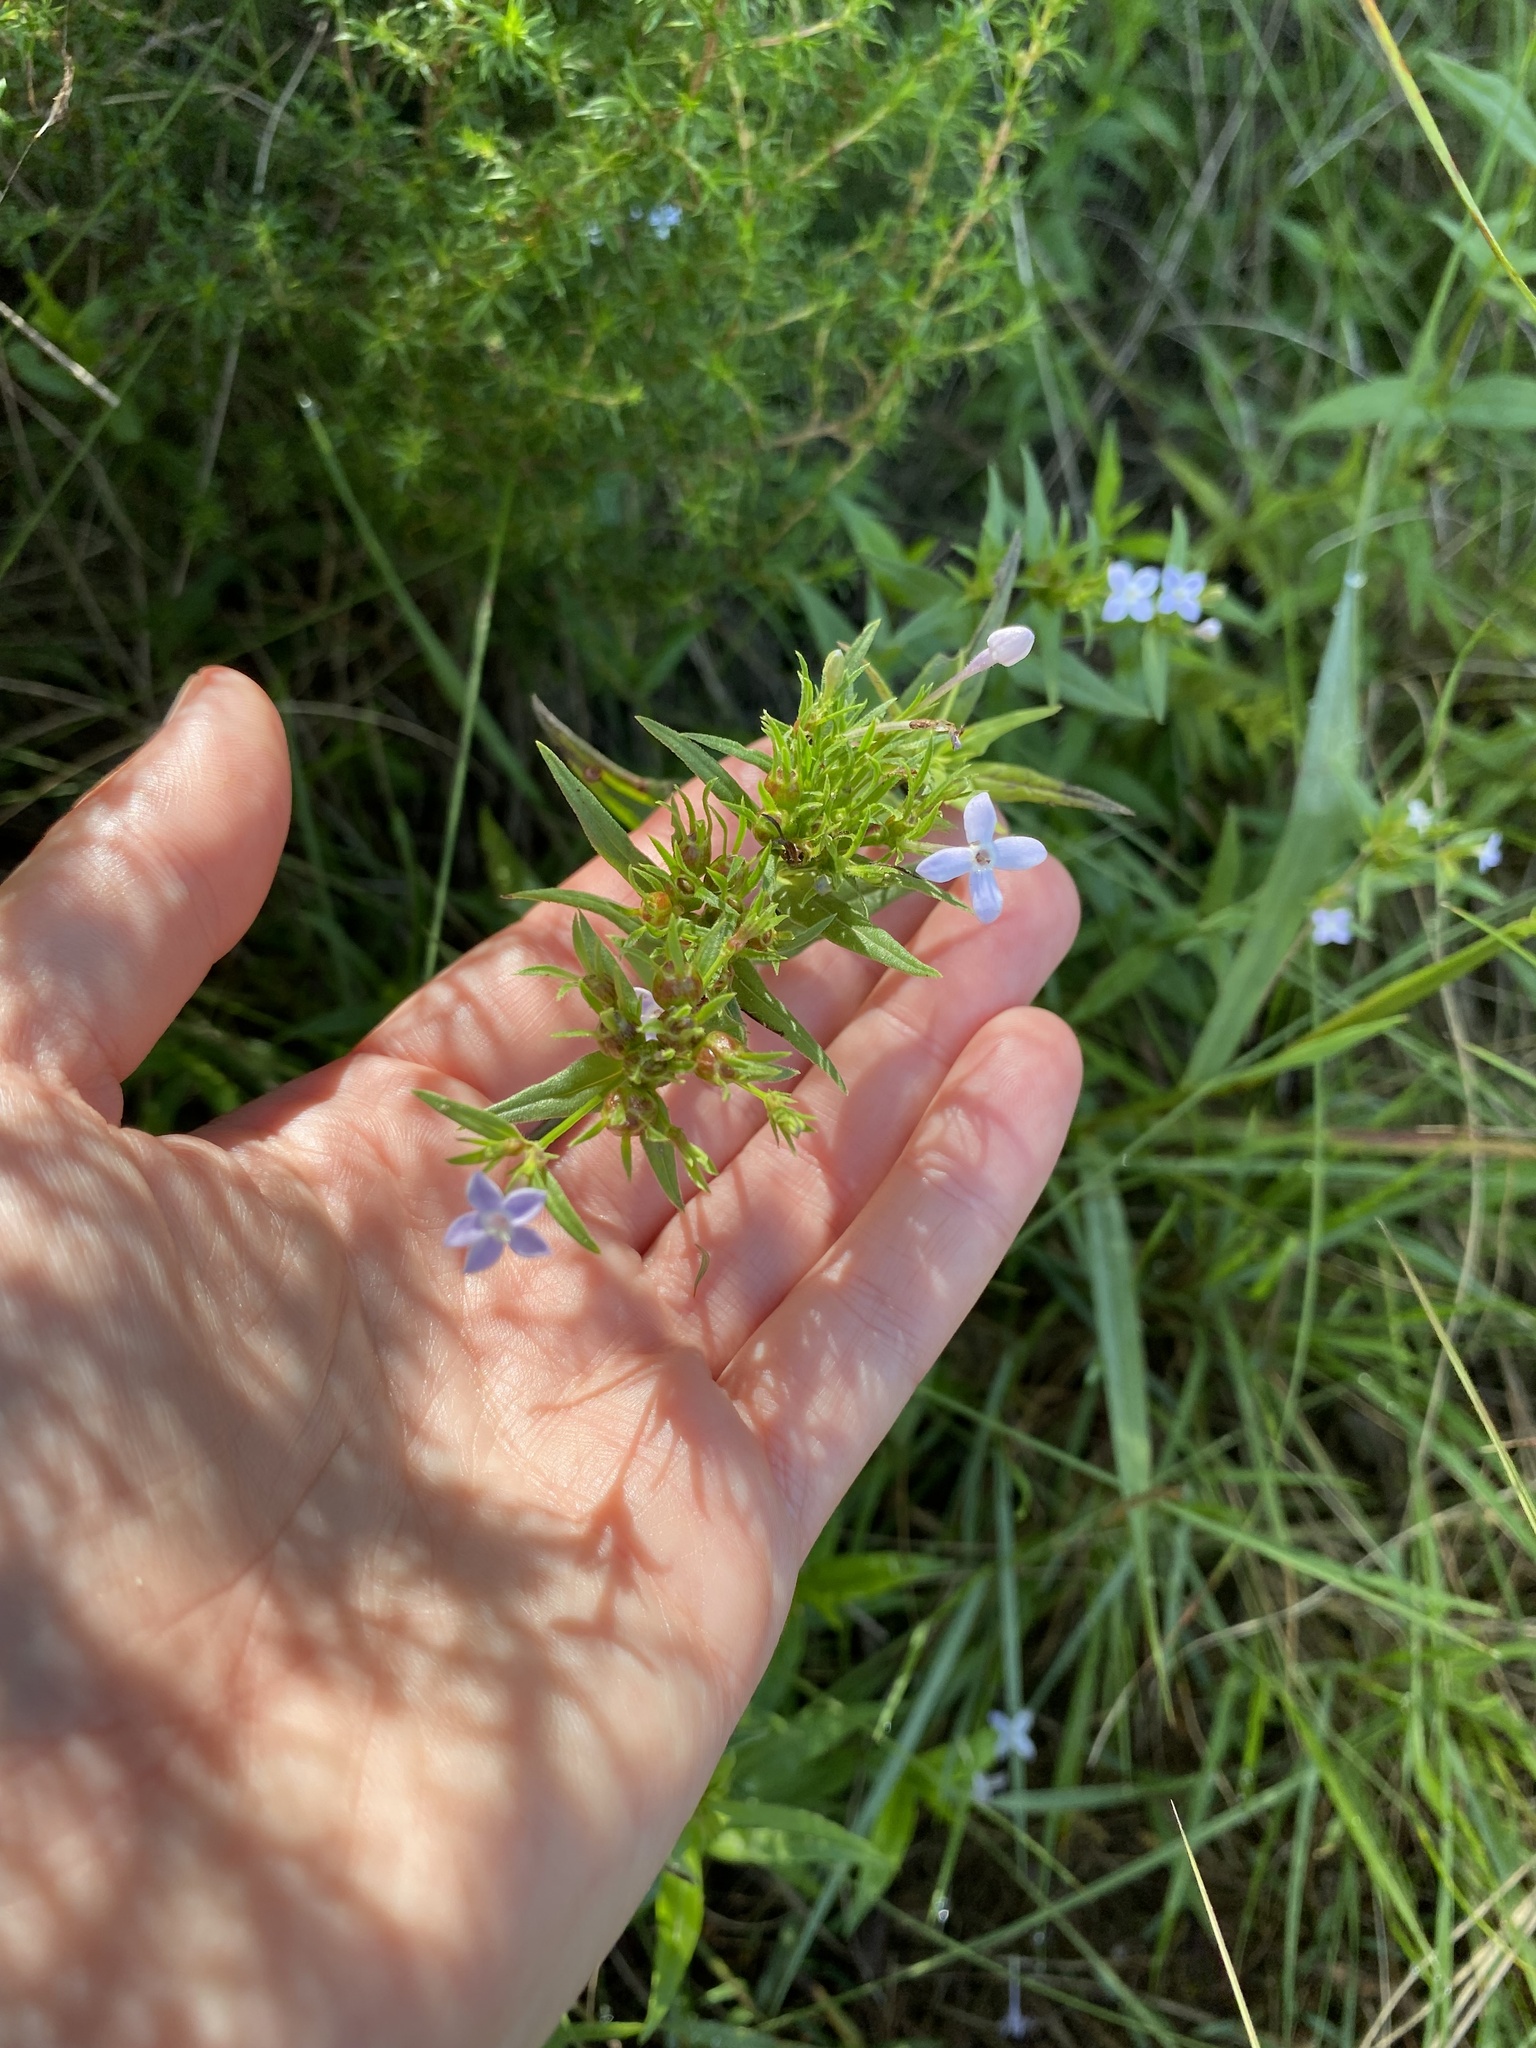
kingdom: Plantae
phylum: Tracheophyta
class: Magnoliopsida
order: Gentianales
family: Rubiaceae
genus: Conostomium
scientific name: Conostomium natalense
